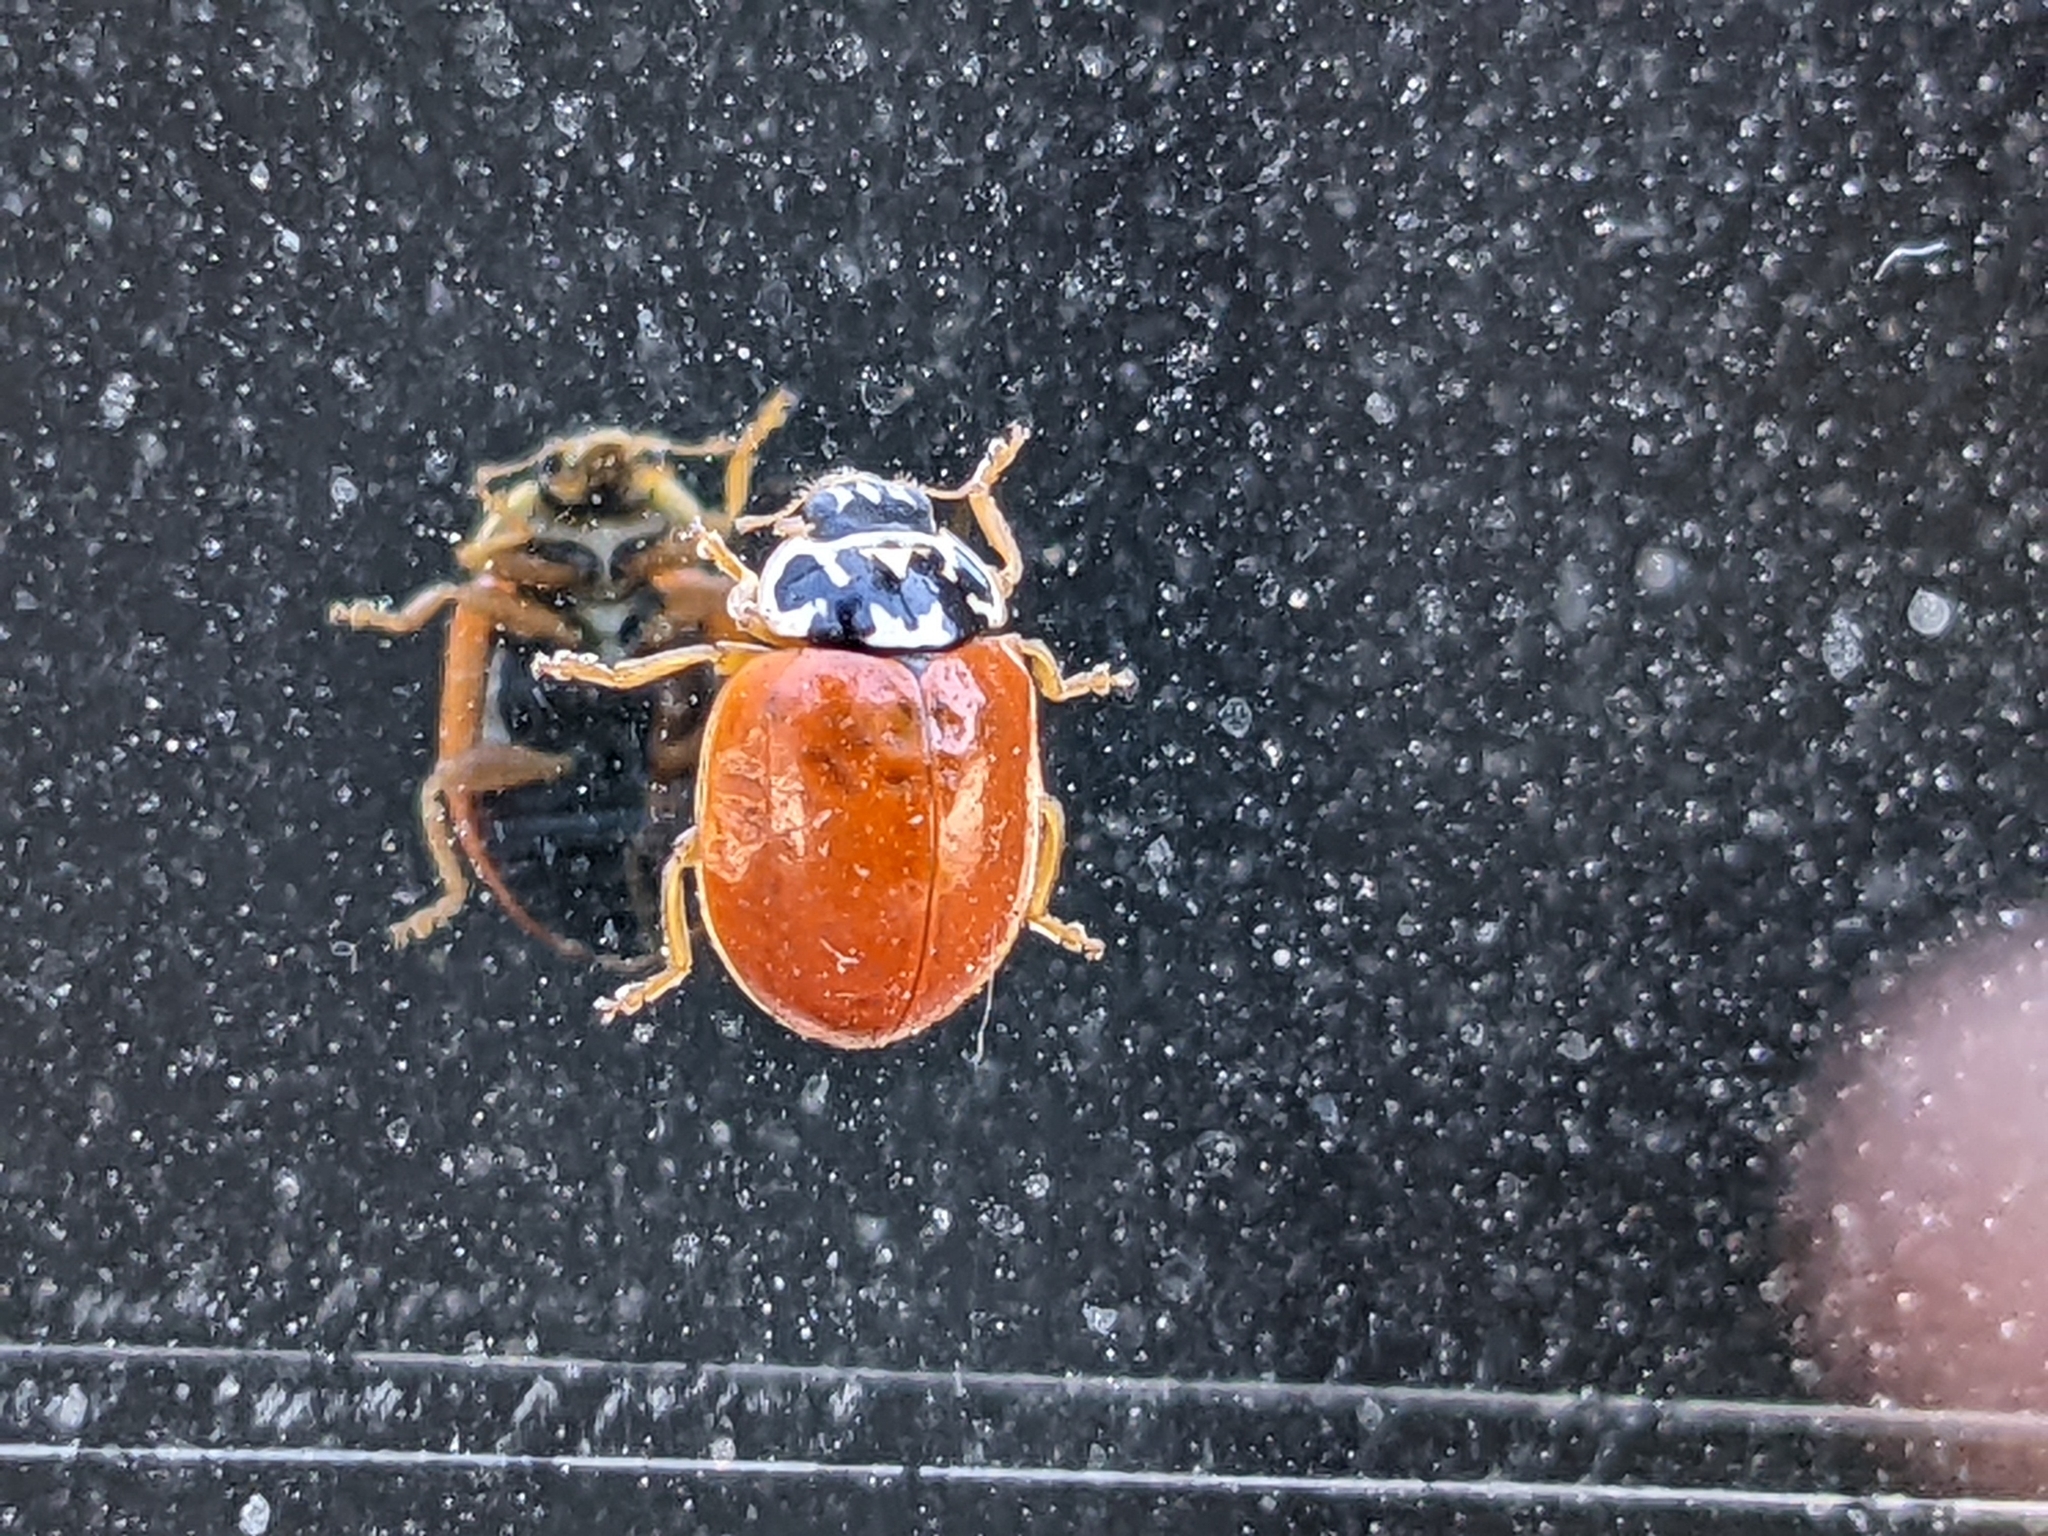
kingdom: Animalia
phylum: Arthropoda
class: Insecta
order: Coleoptera
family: Coccinellidae
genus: Mulsantina
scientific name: Mulsantina picta
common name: Painted ladybird
